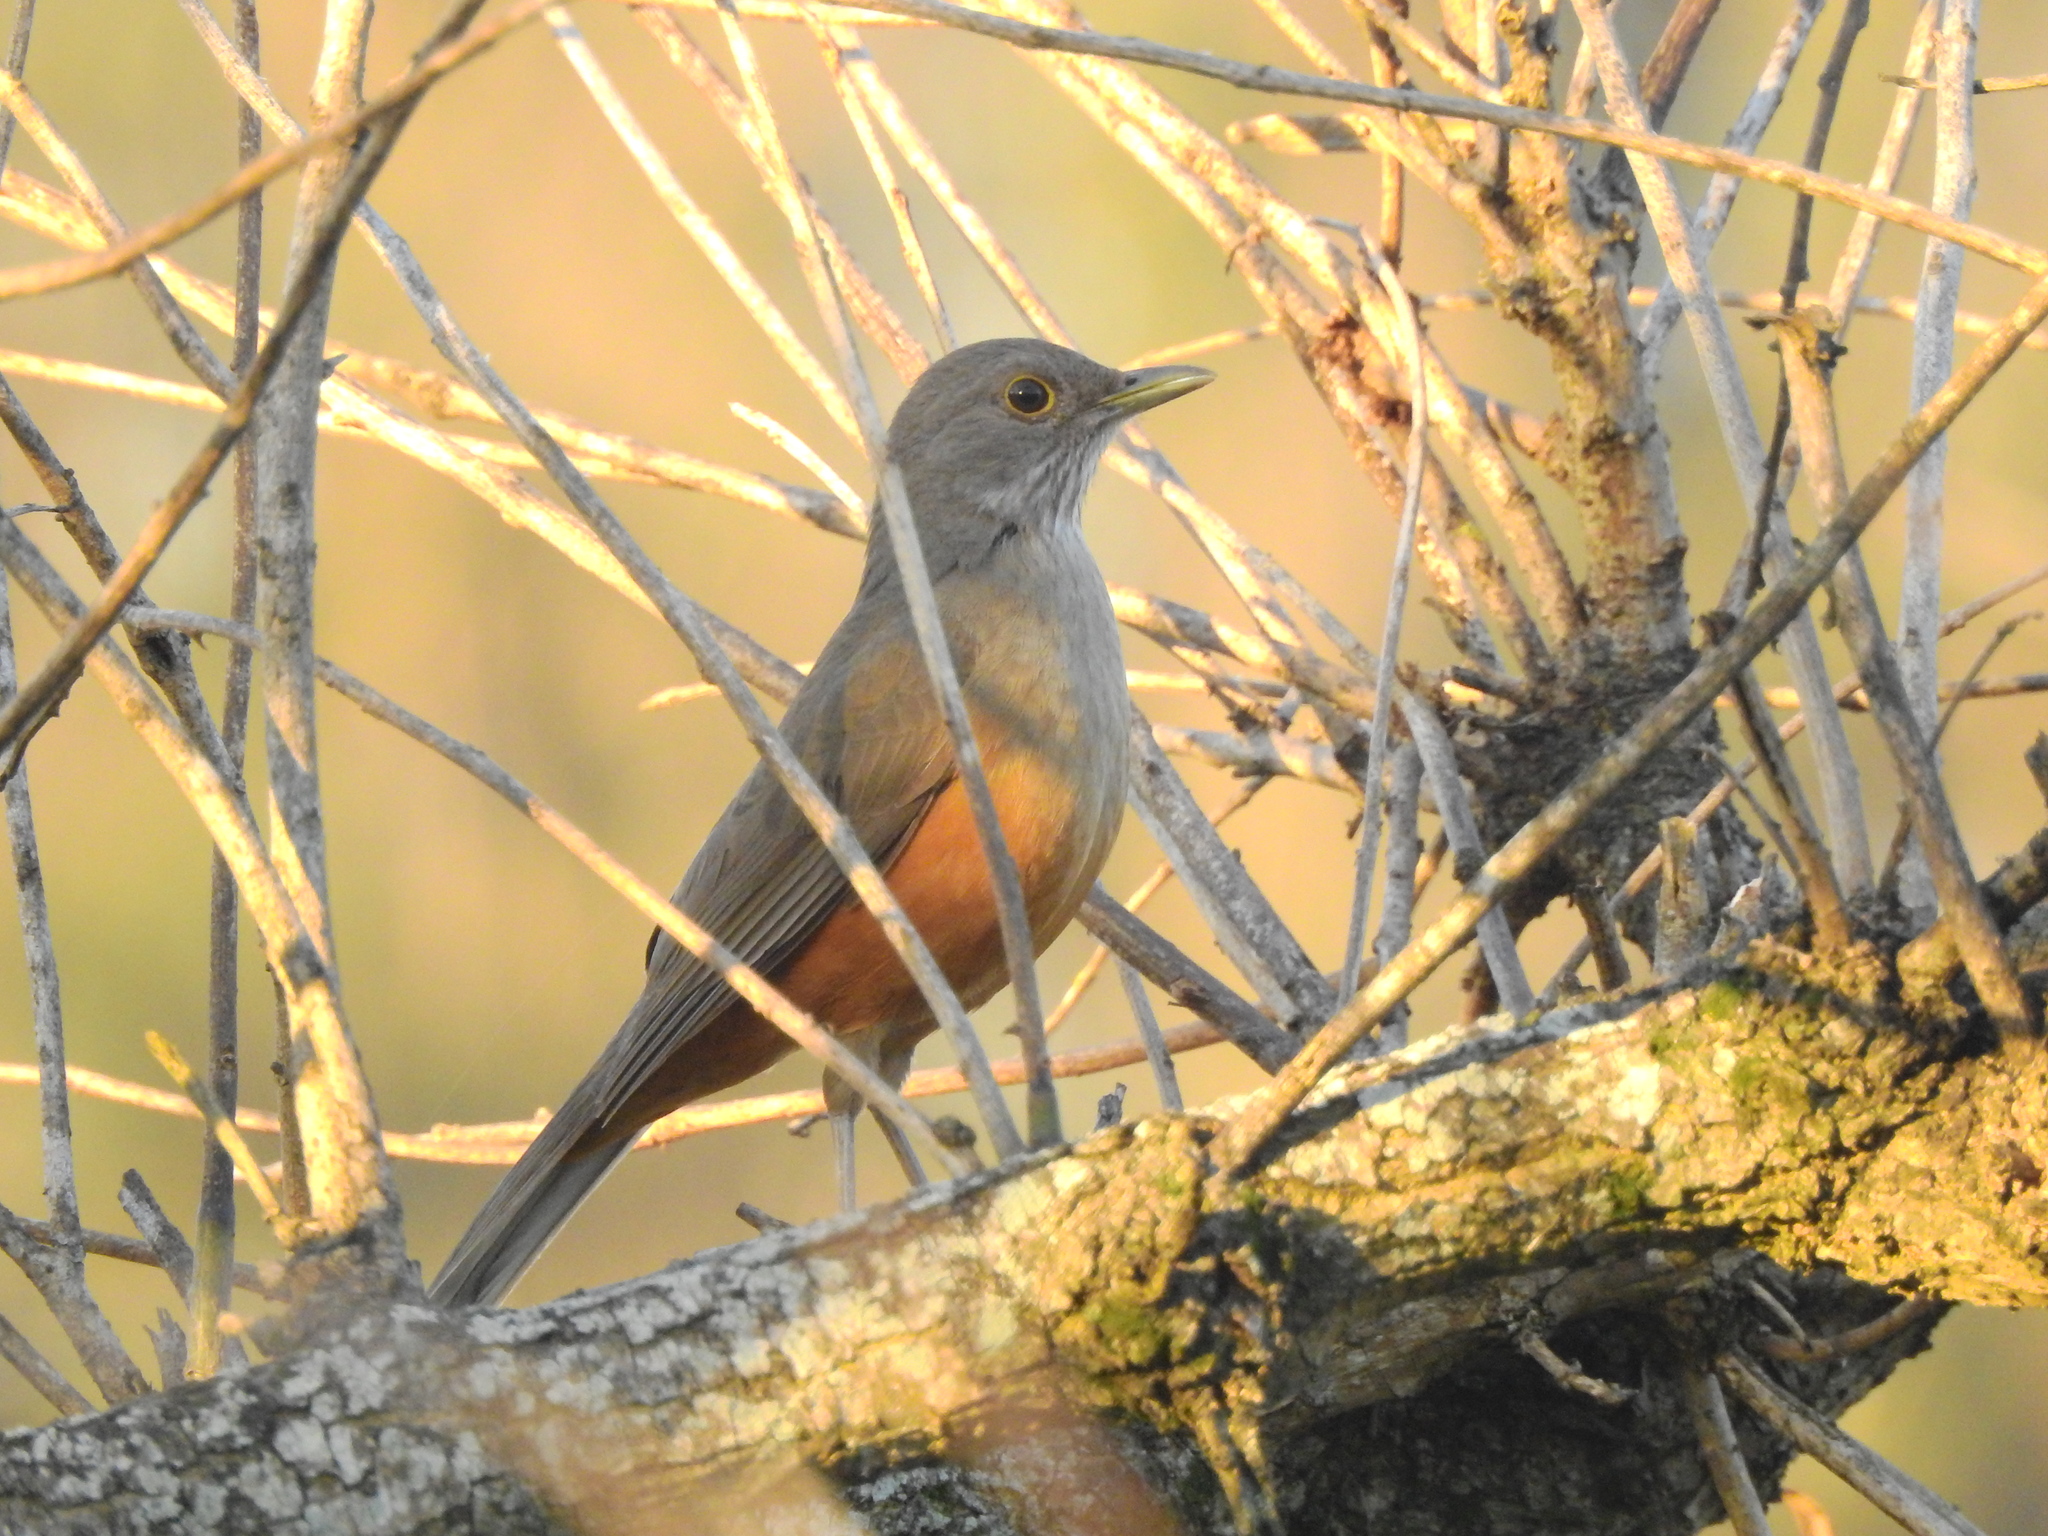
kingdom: Animalia
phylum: Chordata
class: Aves
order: Passeriformes
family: Turdidae
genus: Turdus
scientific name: Turdus rufiventris
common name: Rufous-bellied thrush
